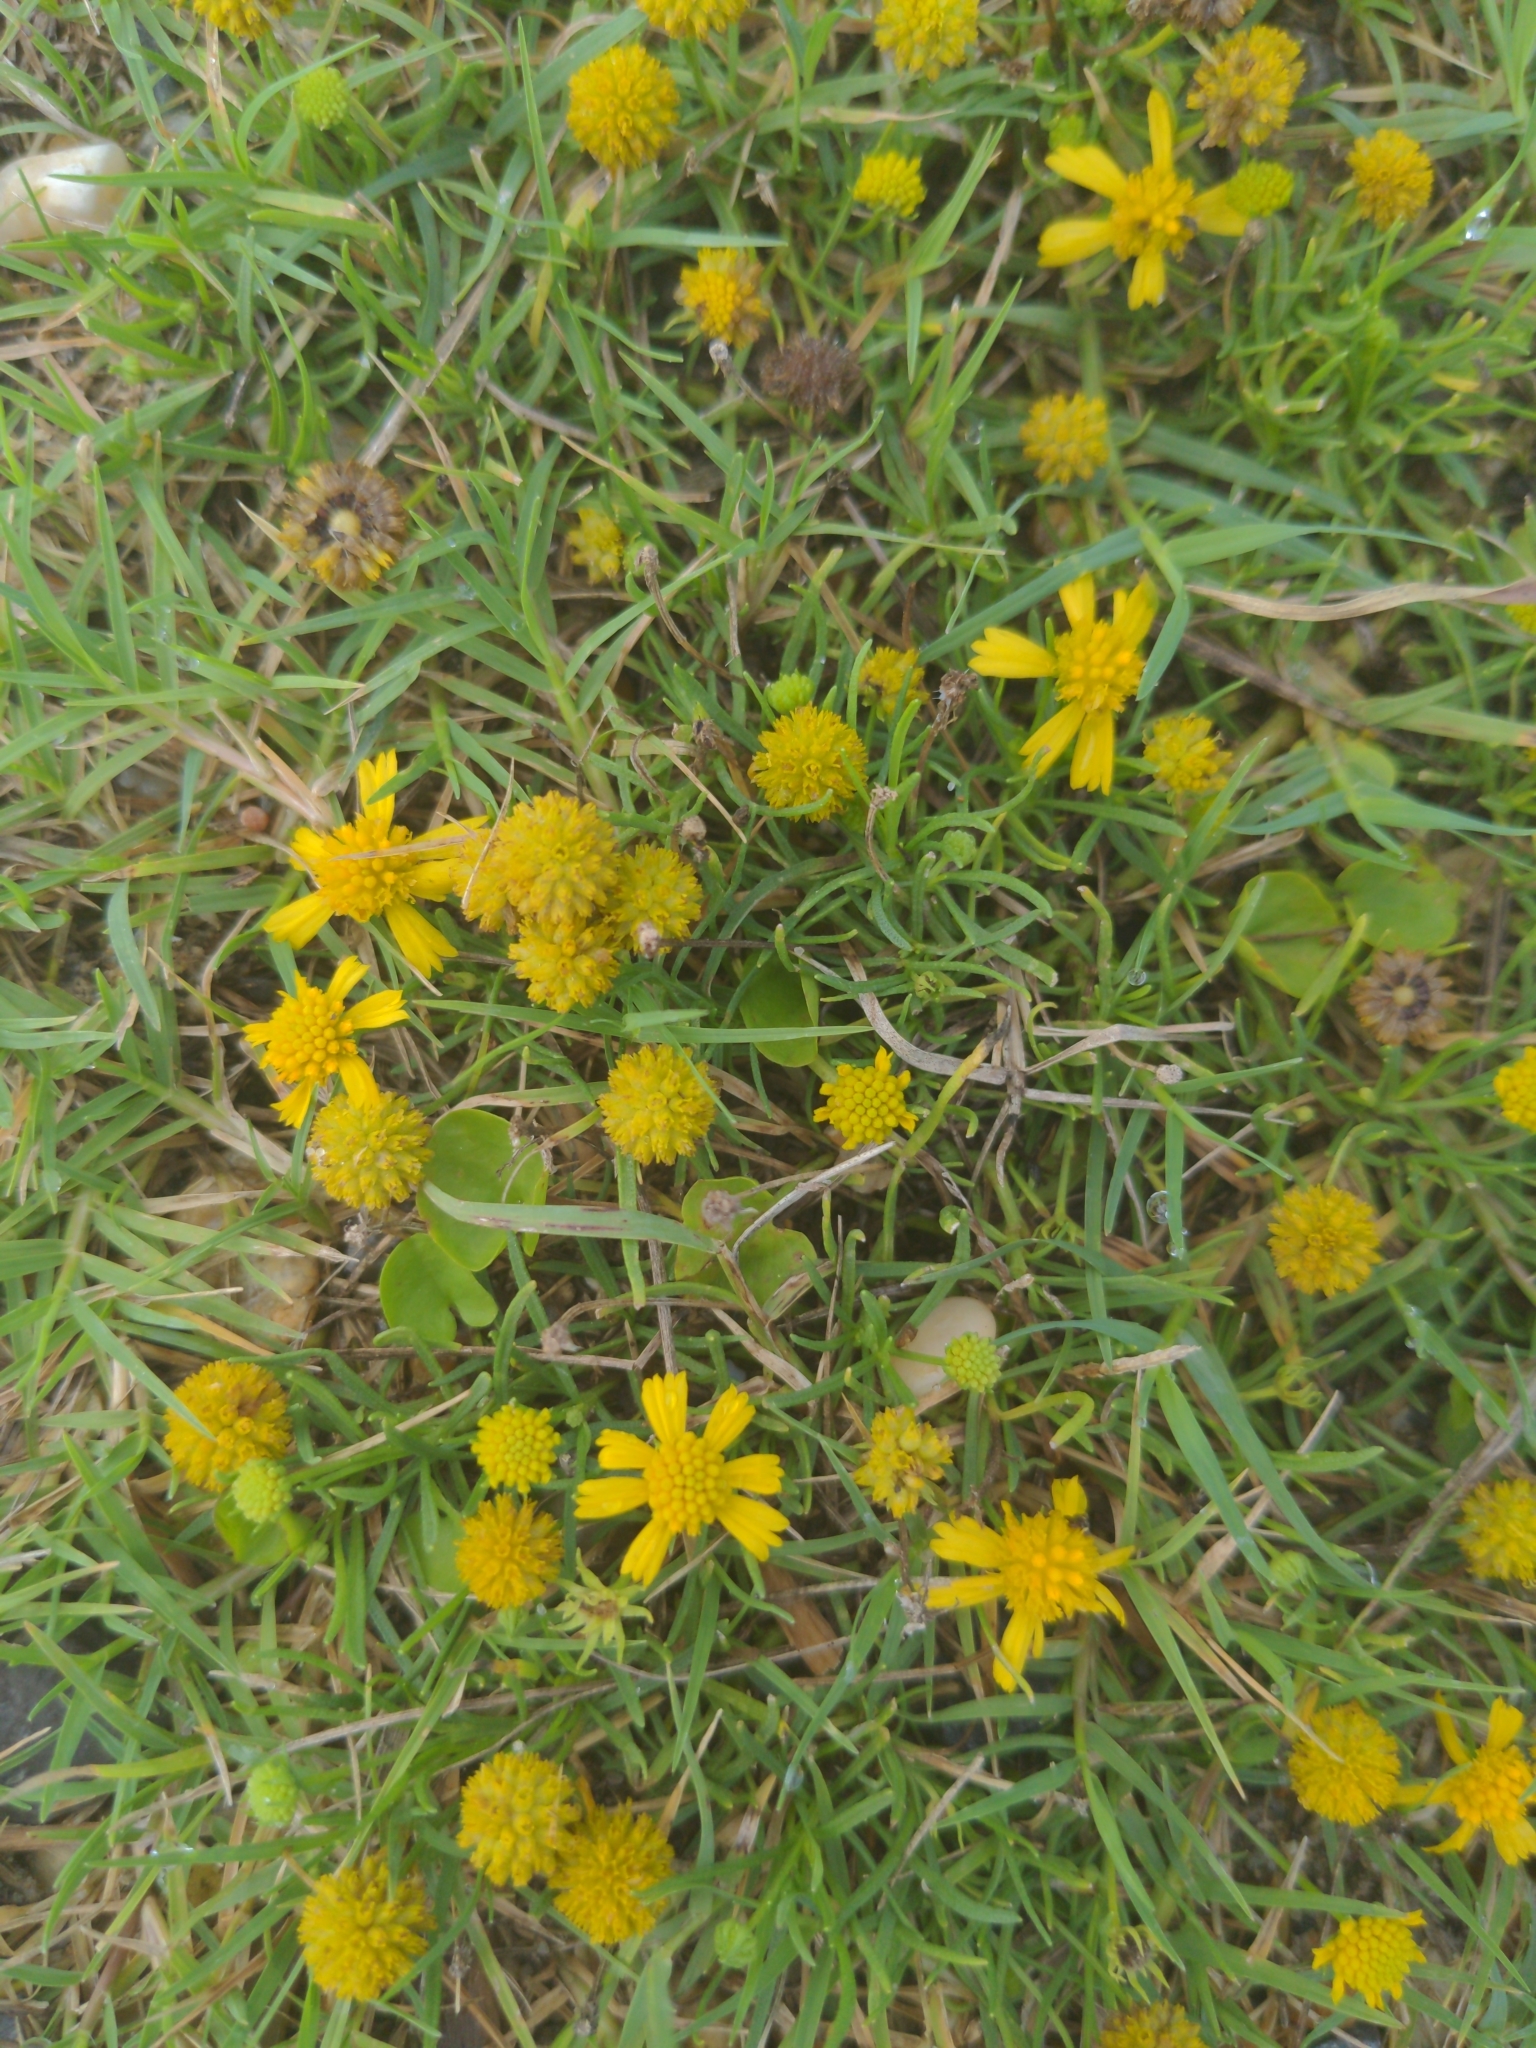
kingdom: Plantae
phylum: Tracheophyta
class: Magnoliopsida
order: Asterales
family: Asteraceae
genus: Helenium
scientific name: Helenium amarum
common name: Bitter sneezeweed
